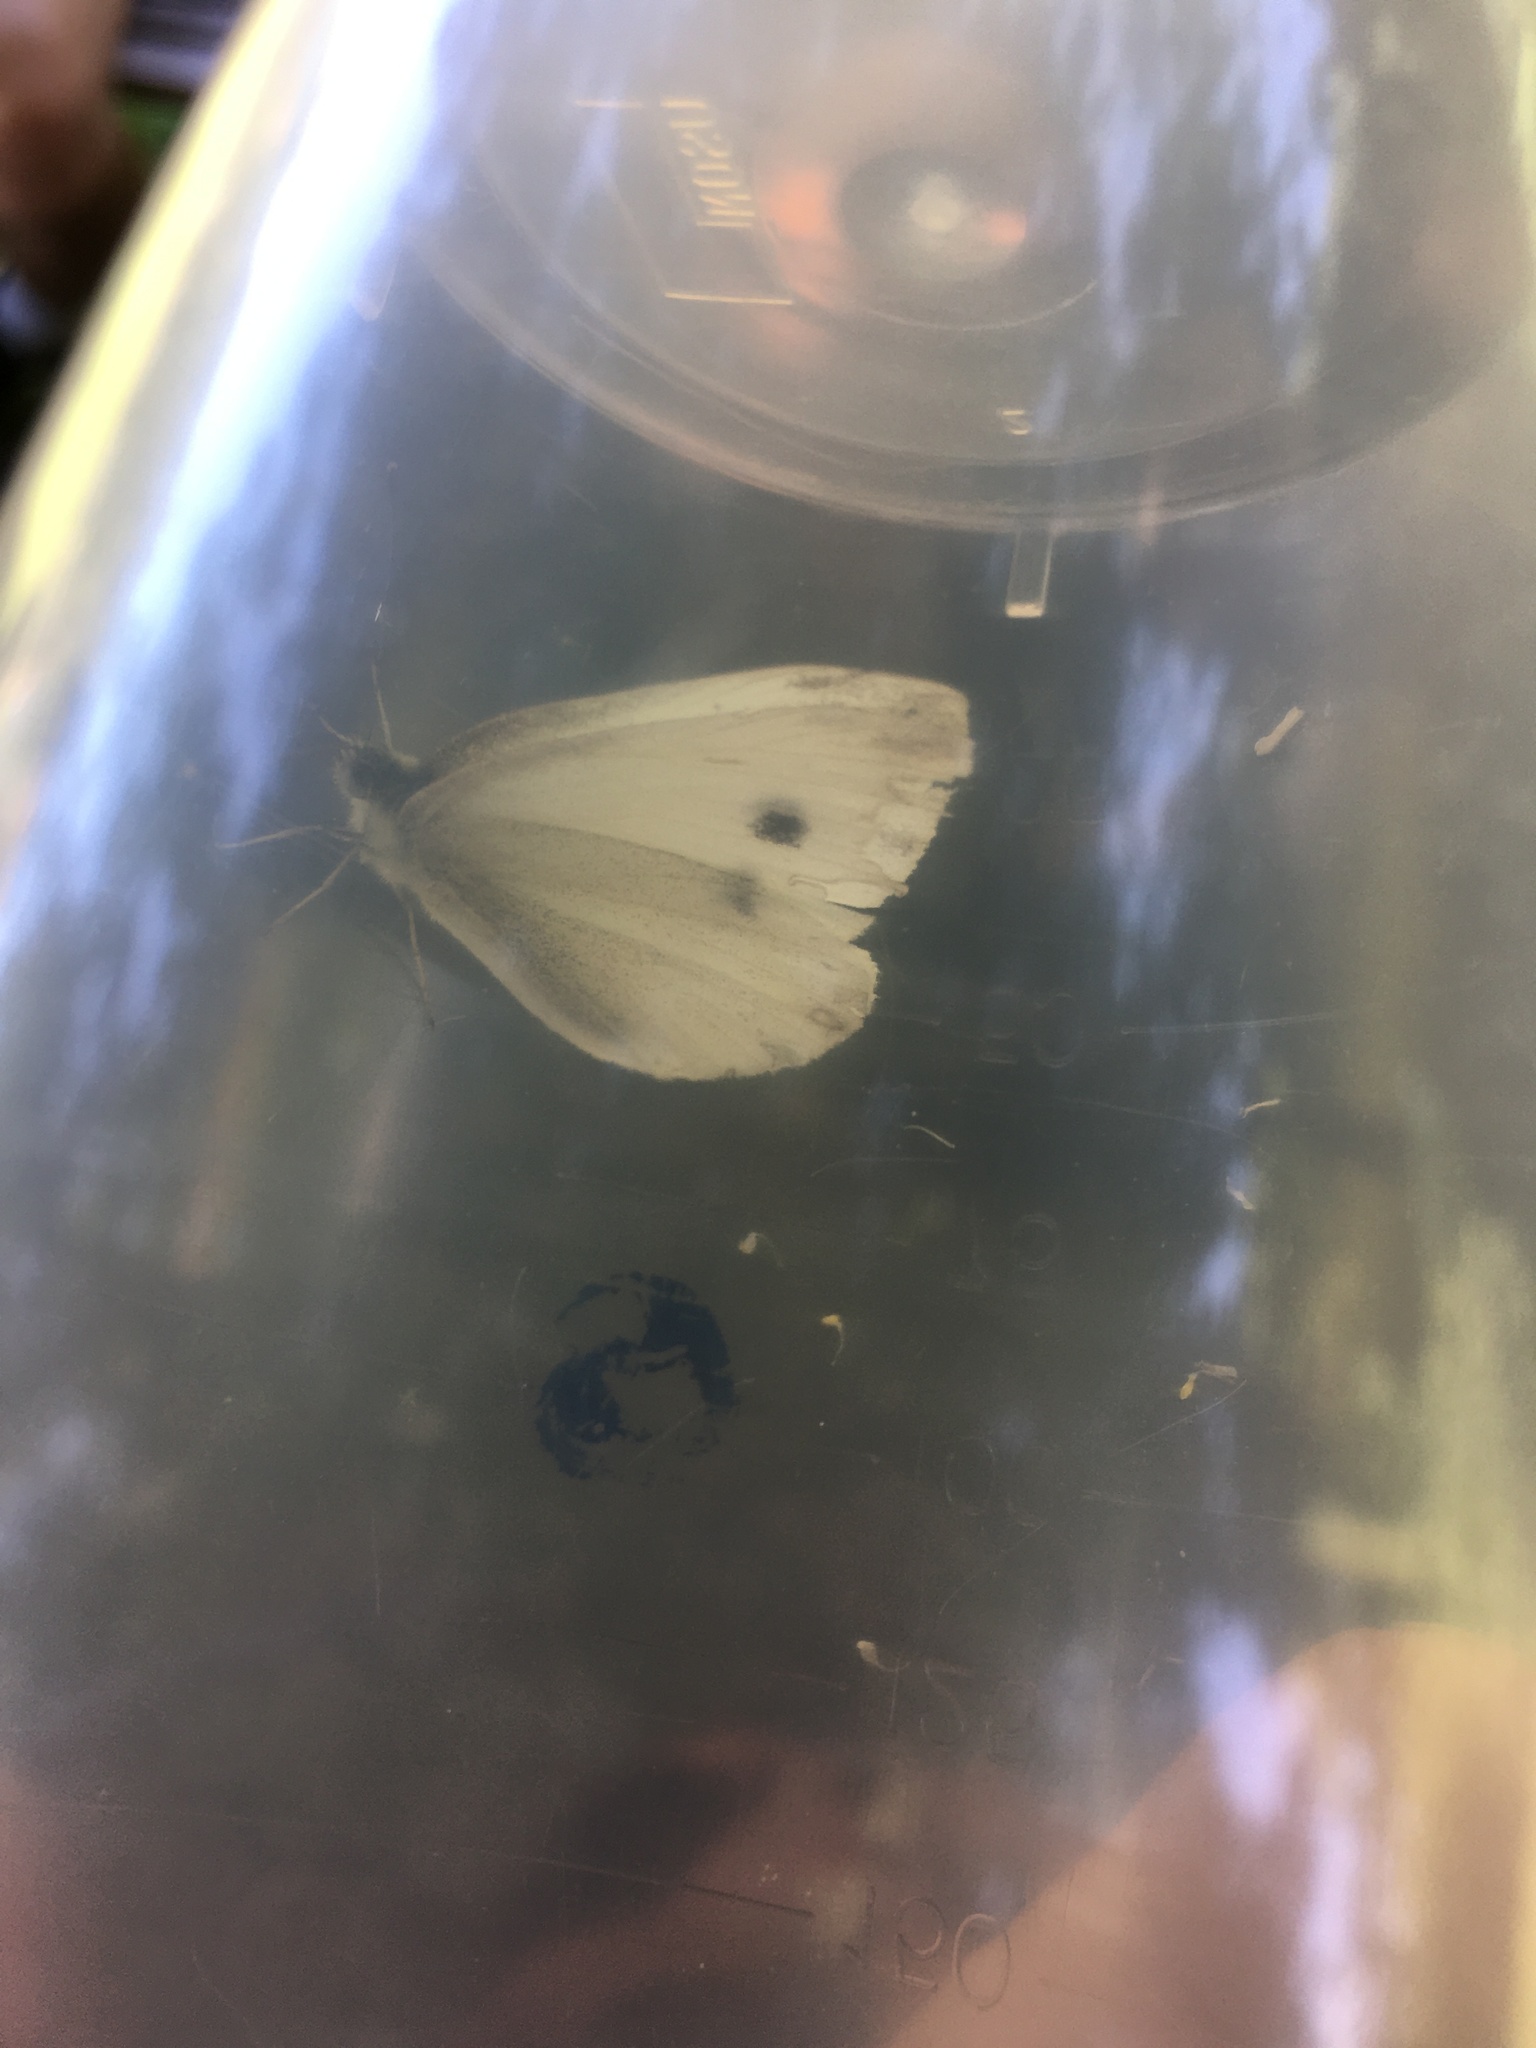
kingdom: Animalia
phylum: Arthropoda
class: Insecta
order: Lepidoptera
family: Pieridae
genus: Pieris
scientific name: Pieris rapae
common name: Small white
